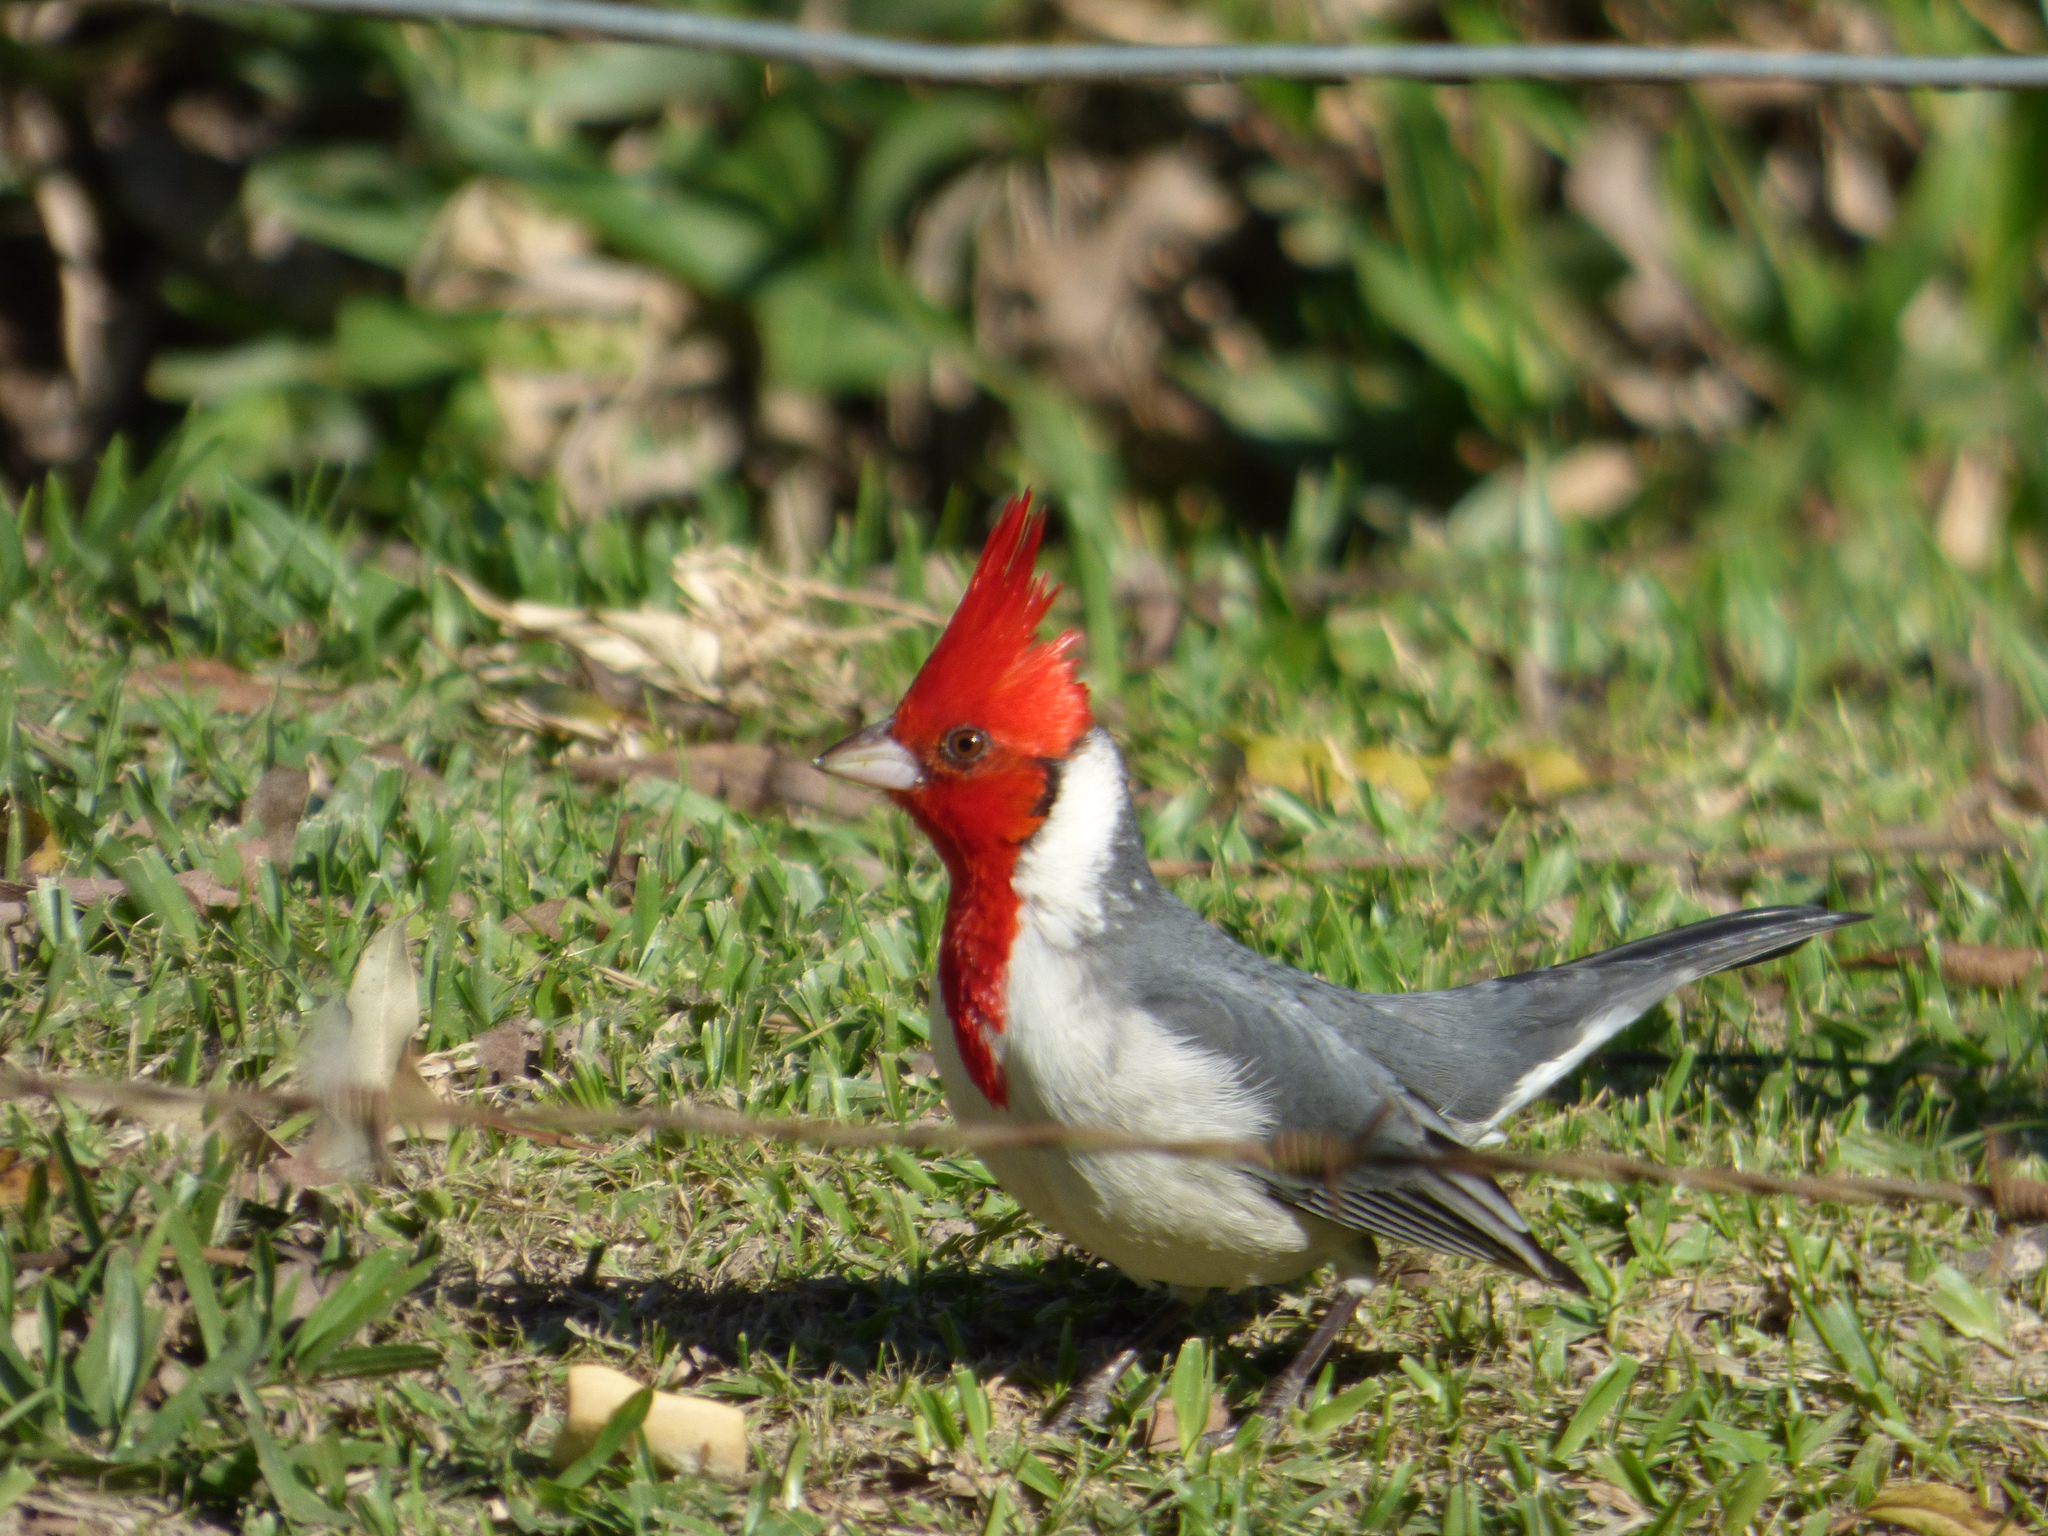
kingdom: Animalia
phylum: Chordata
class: Aves
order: Passeriformes
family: Thraupidae
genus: Paroaria
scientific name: Paroaria coronata
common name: Red-crested cardinal
